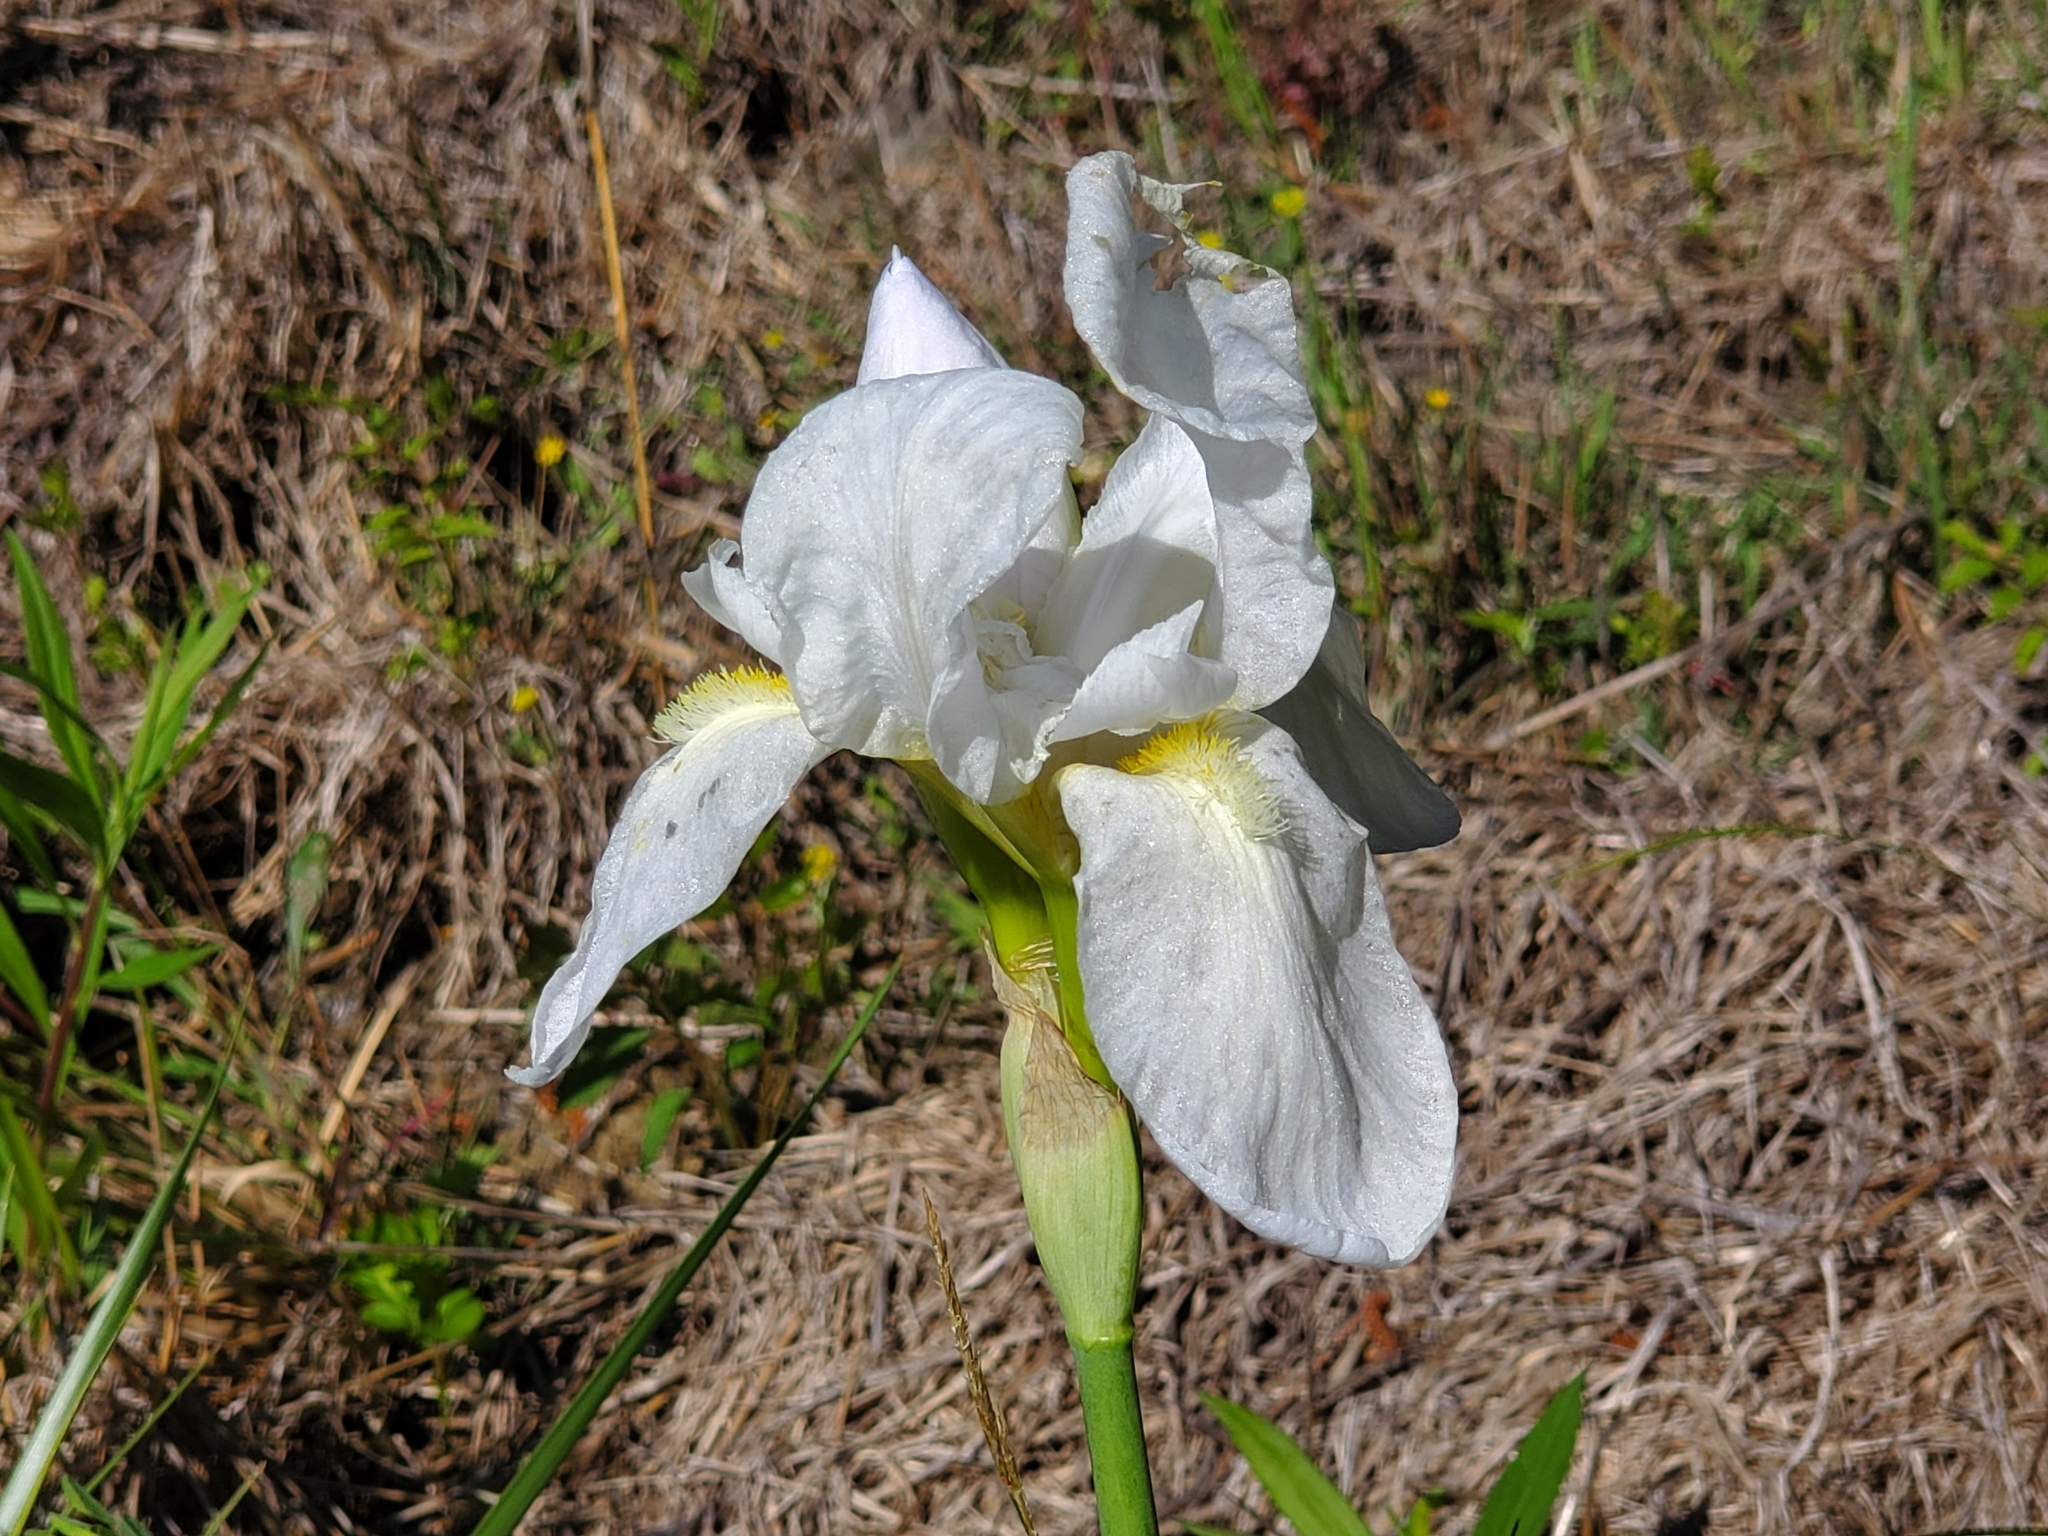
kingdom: Plantae
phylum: Tracheophyta
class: Liliopsida
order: Asparagales
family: Iridaceae
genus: Iris
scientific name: Iris florentina
